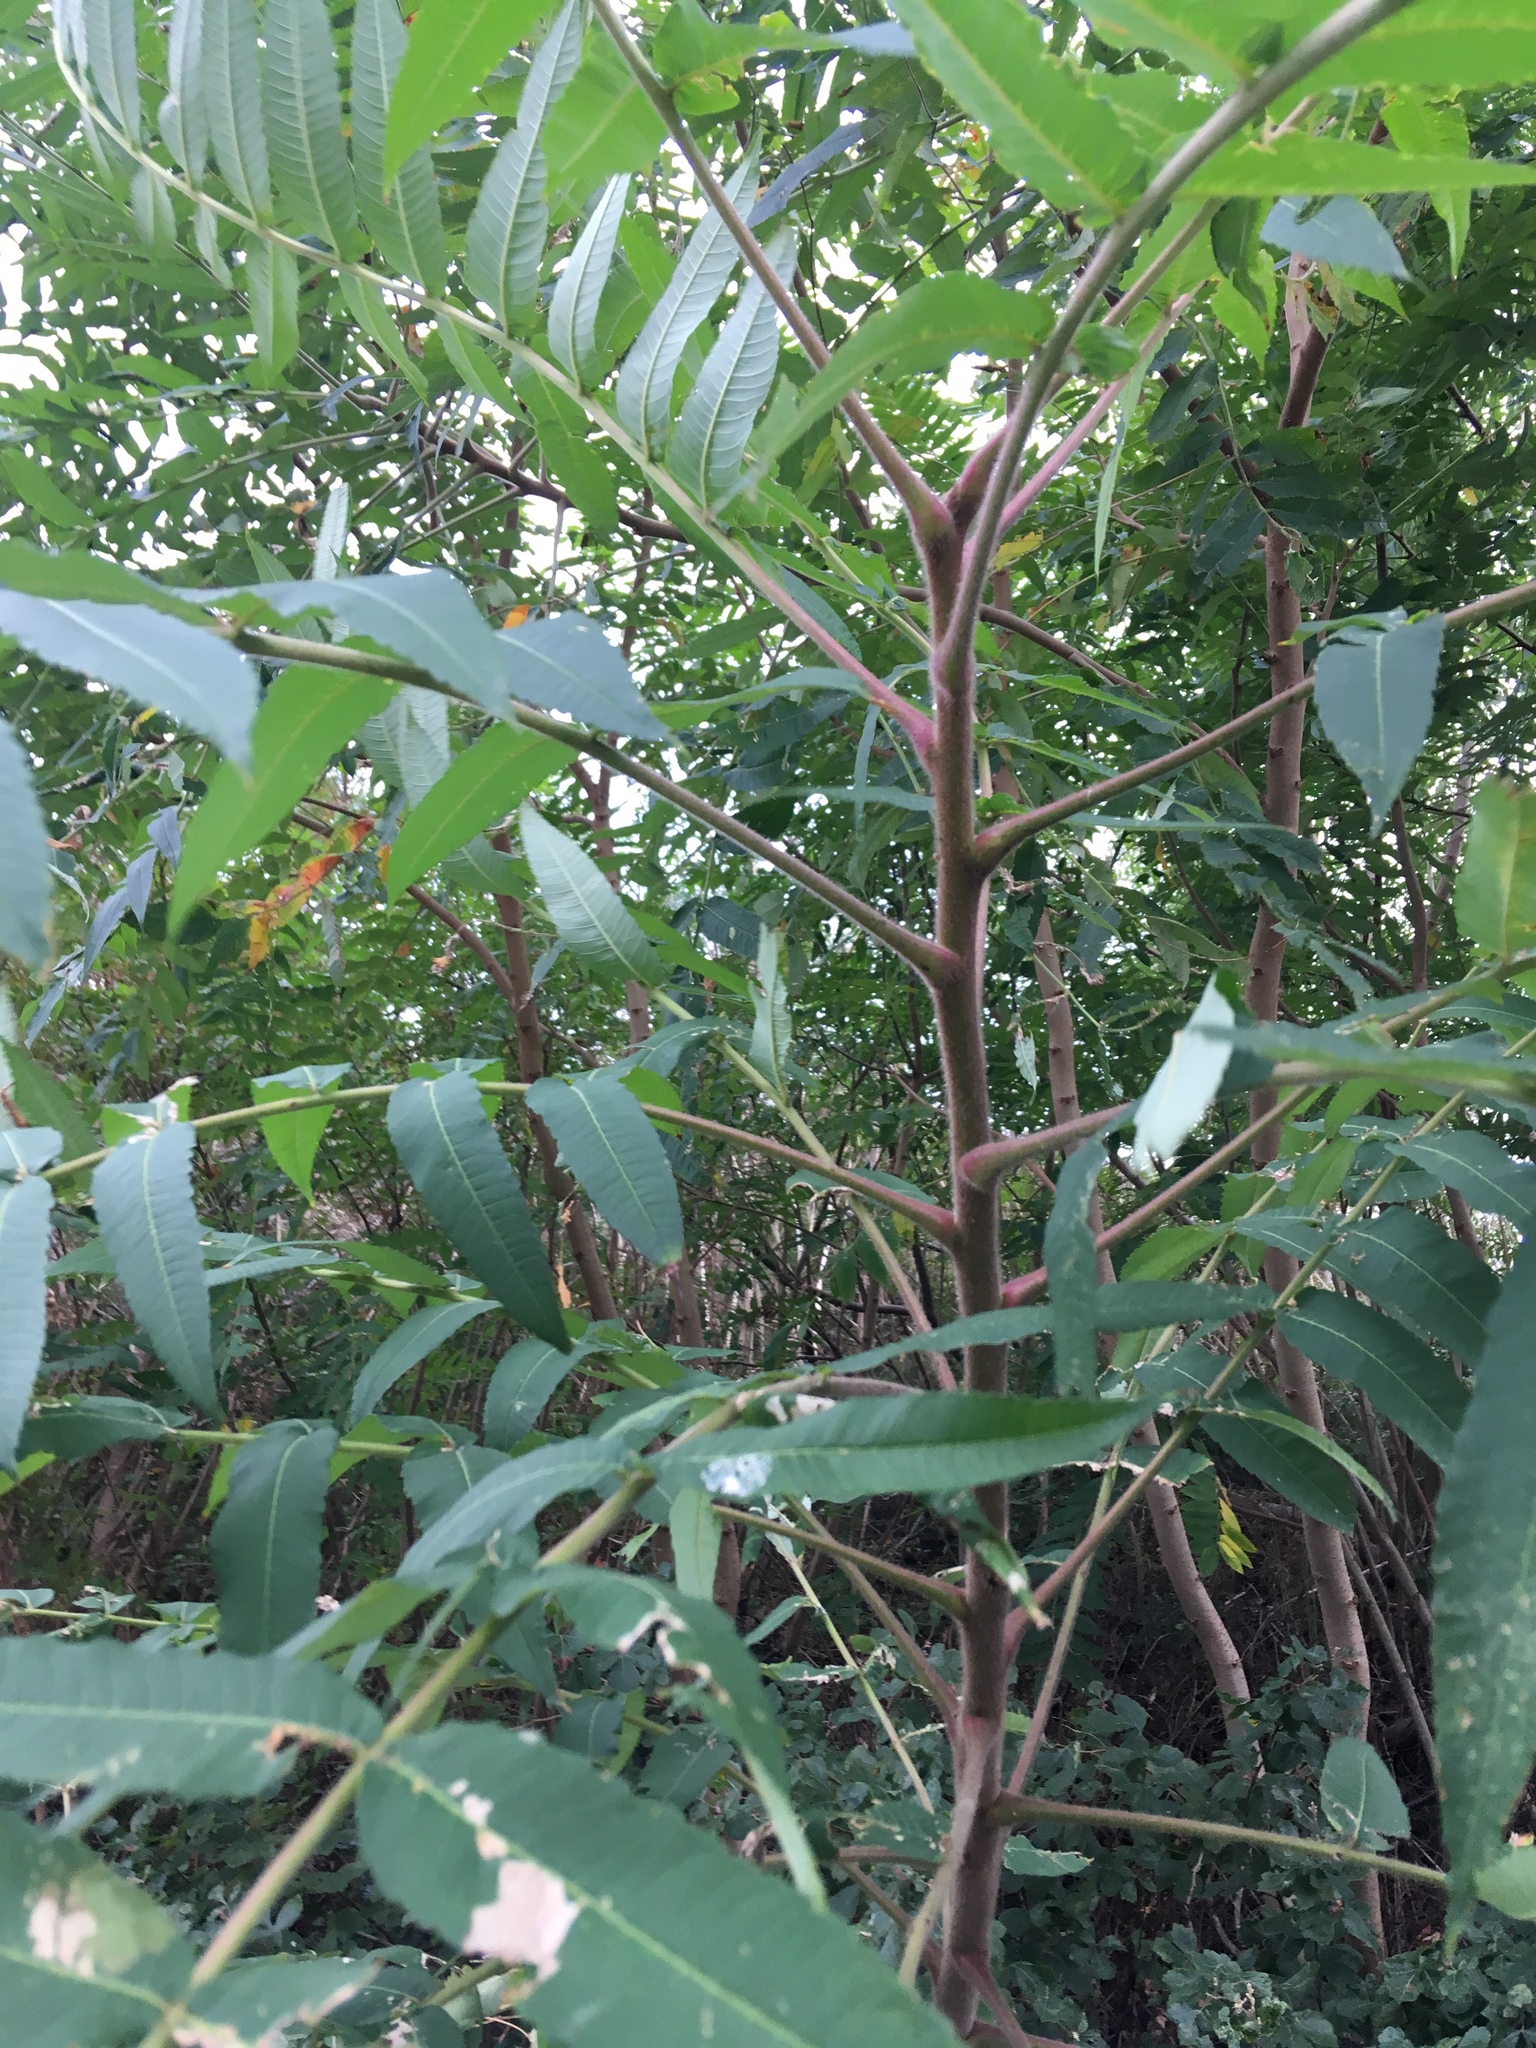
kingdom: Plantae
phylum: Tracheophyta
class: Magnoliopsida
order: Sapindales
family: Anacardiaceae
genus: Rhus
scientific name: Rhus typhina
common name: Staghorn sumac
